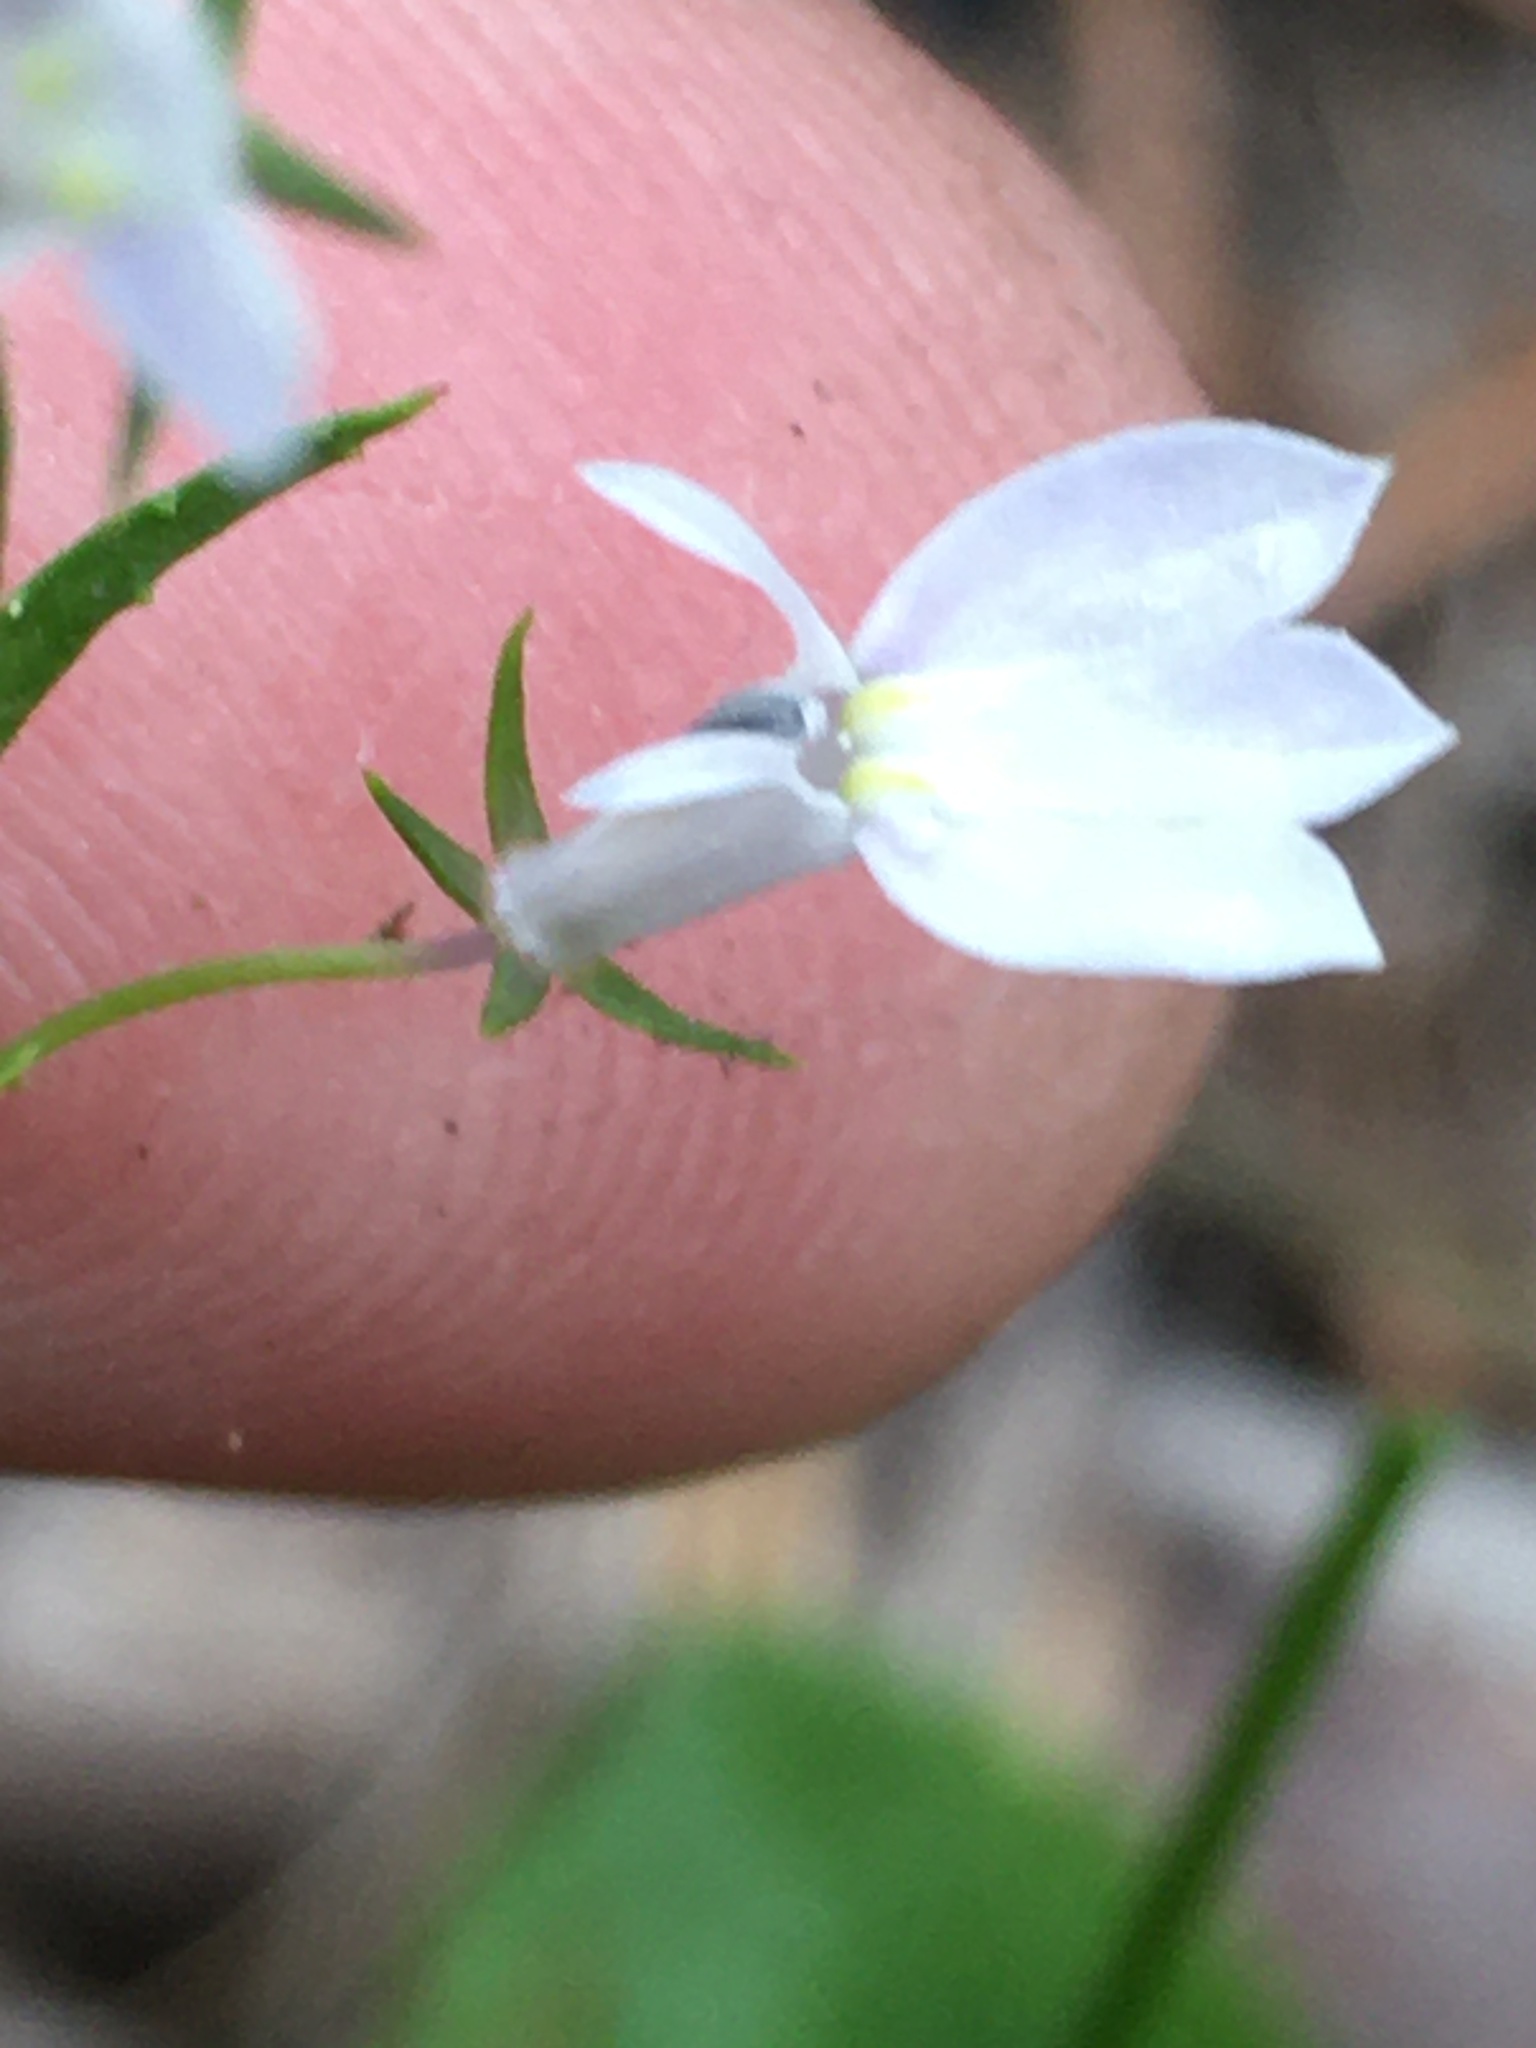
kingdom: Plantae
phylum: Tracheophyta
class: Magnoliopsida
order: Asterales
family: Campanulaceae
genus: Lobelia
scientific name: Lobelia nuttallii
